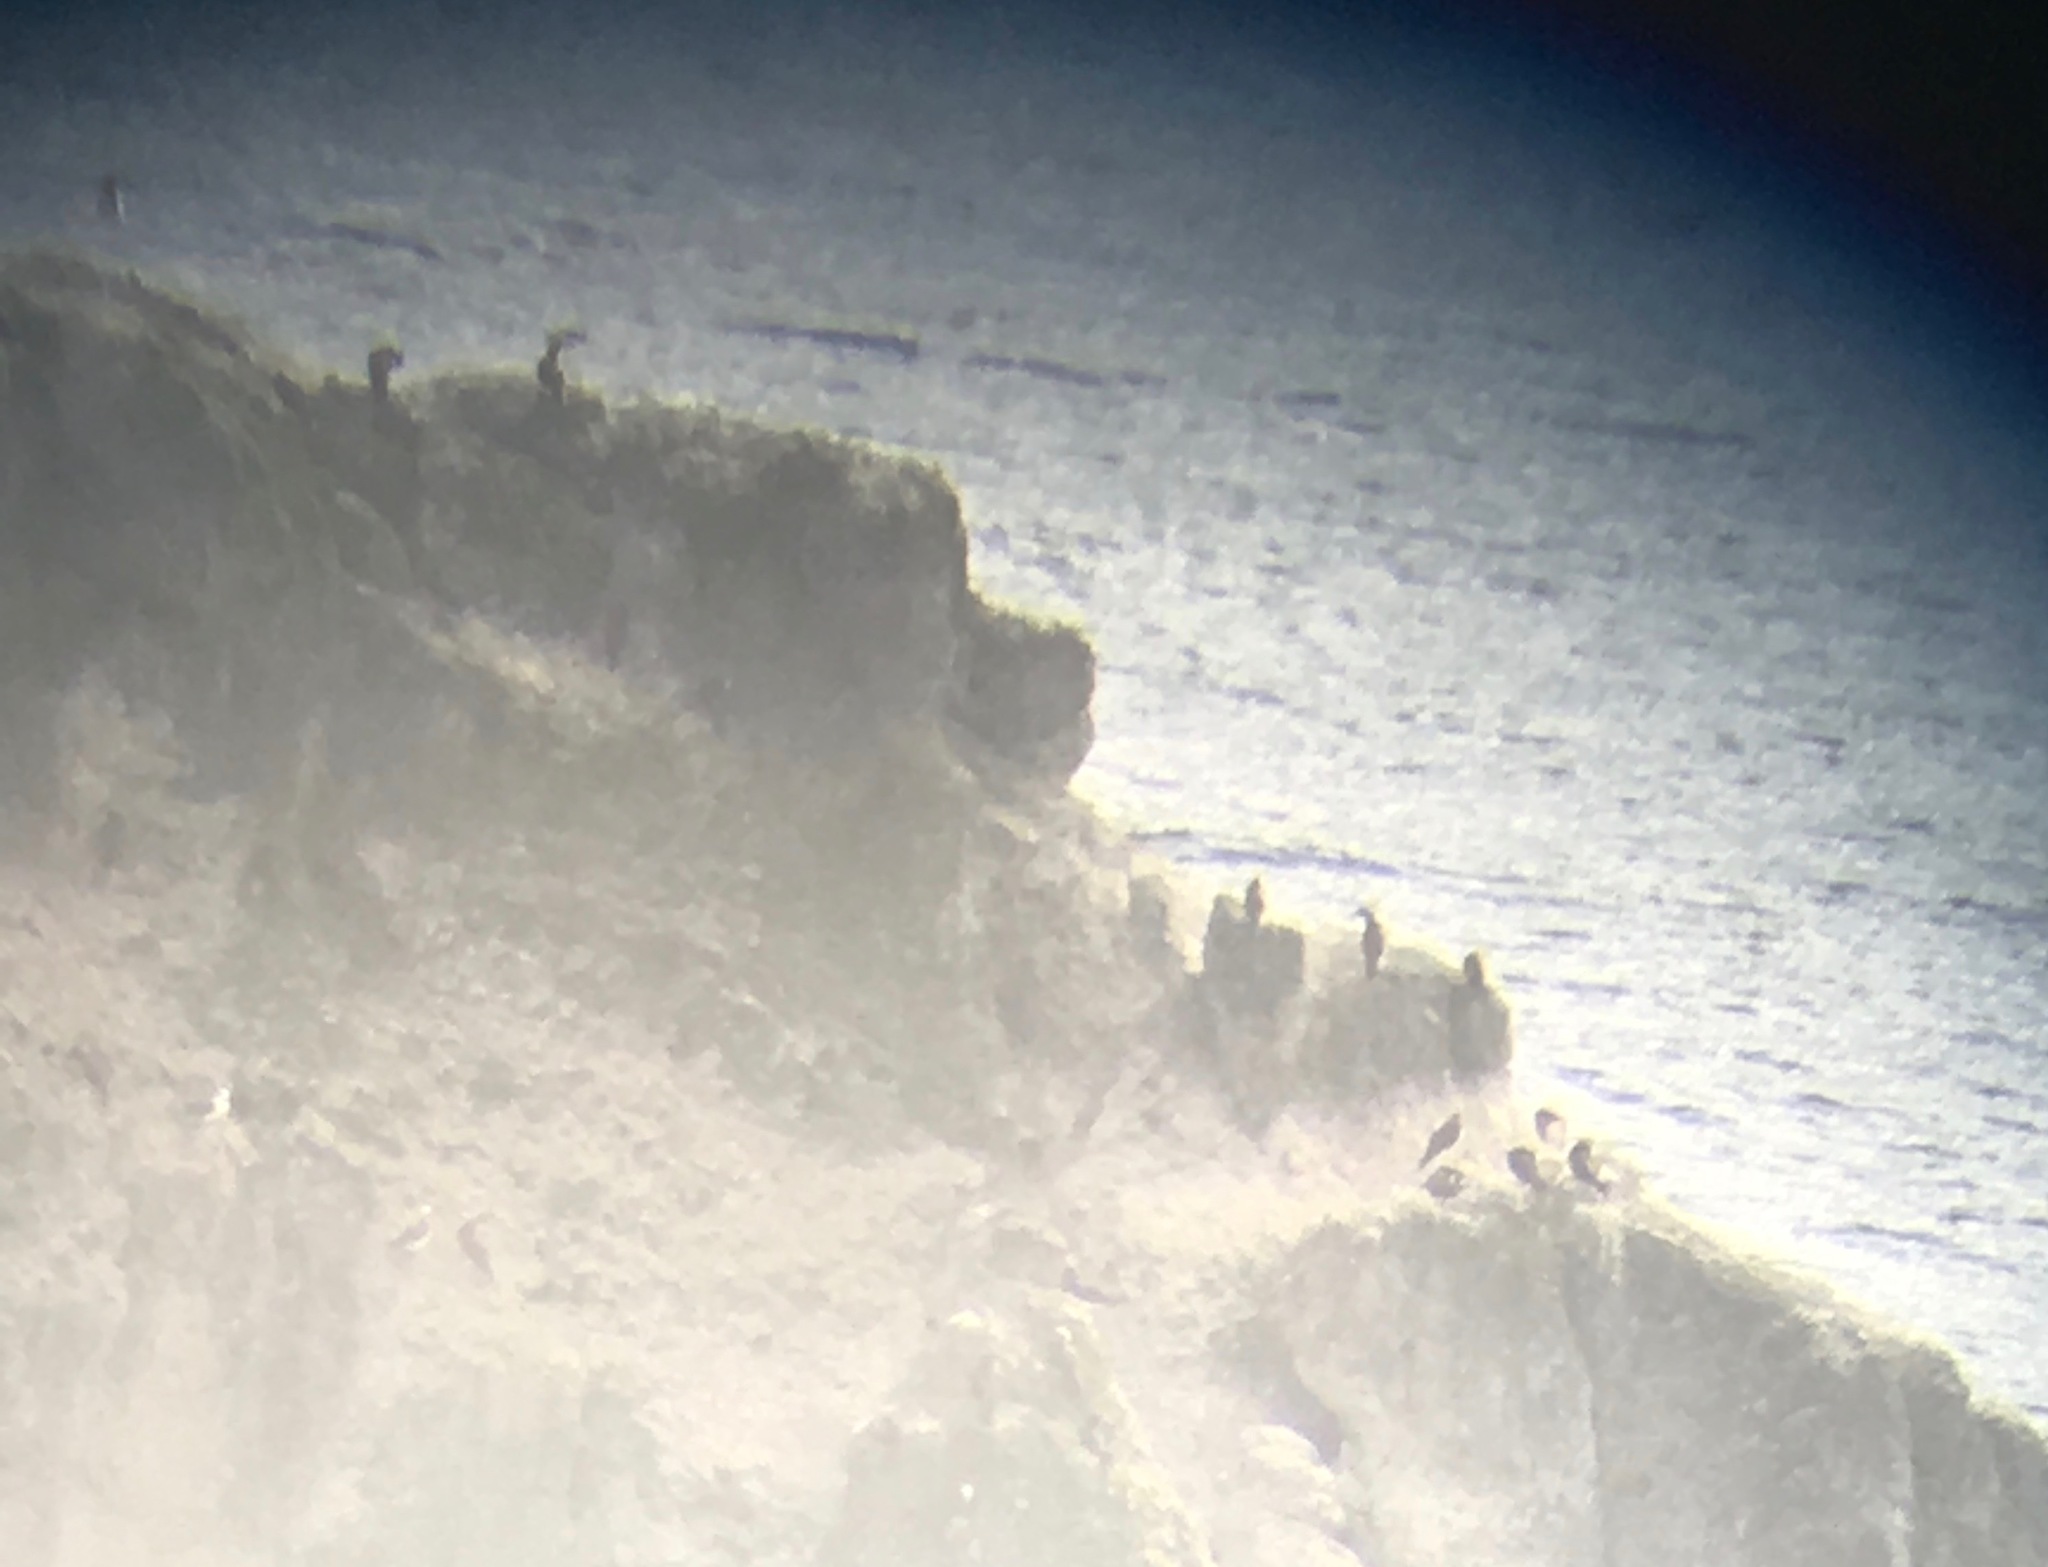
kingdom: Animalia
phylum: Chordata
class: Aves
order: Suliformes
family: Sulidae
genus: Sula
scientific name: Sula leucogaster
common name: Brown booby
